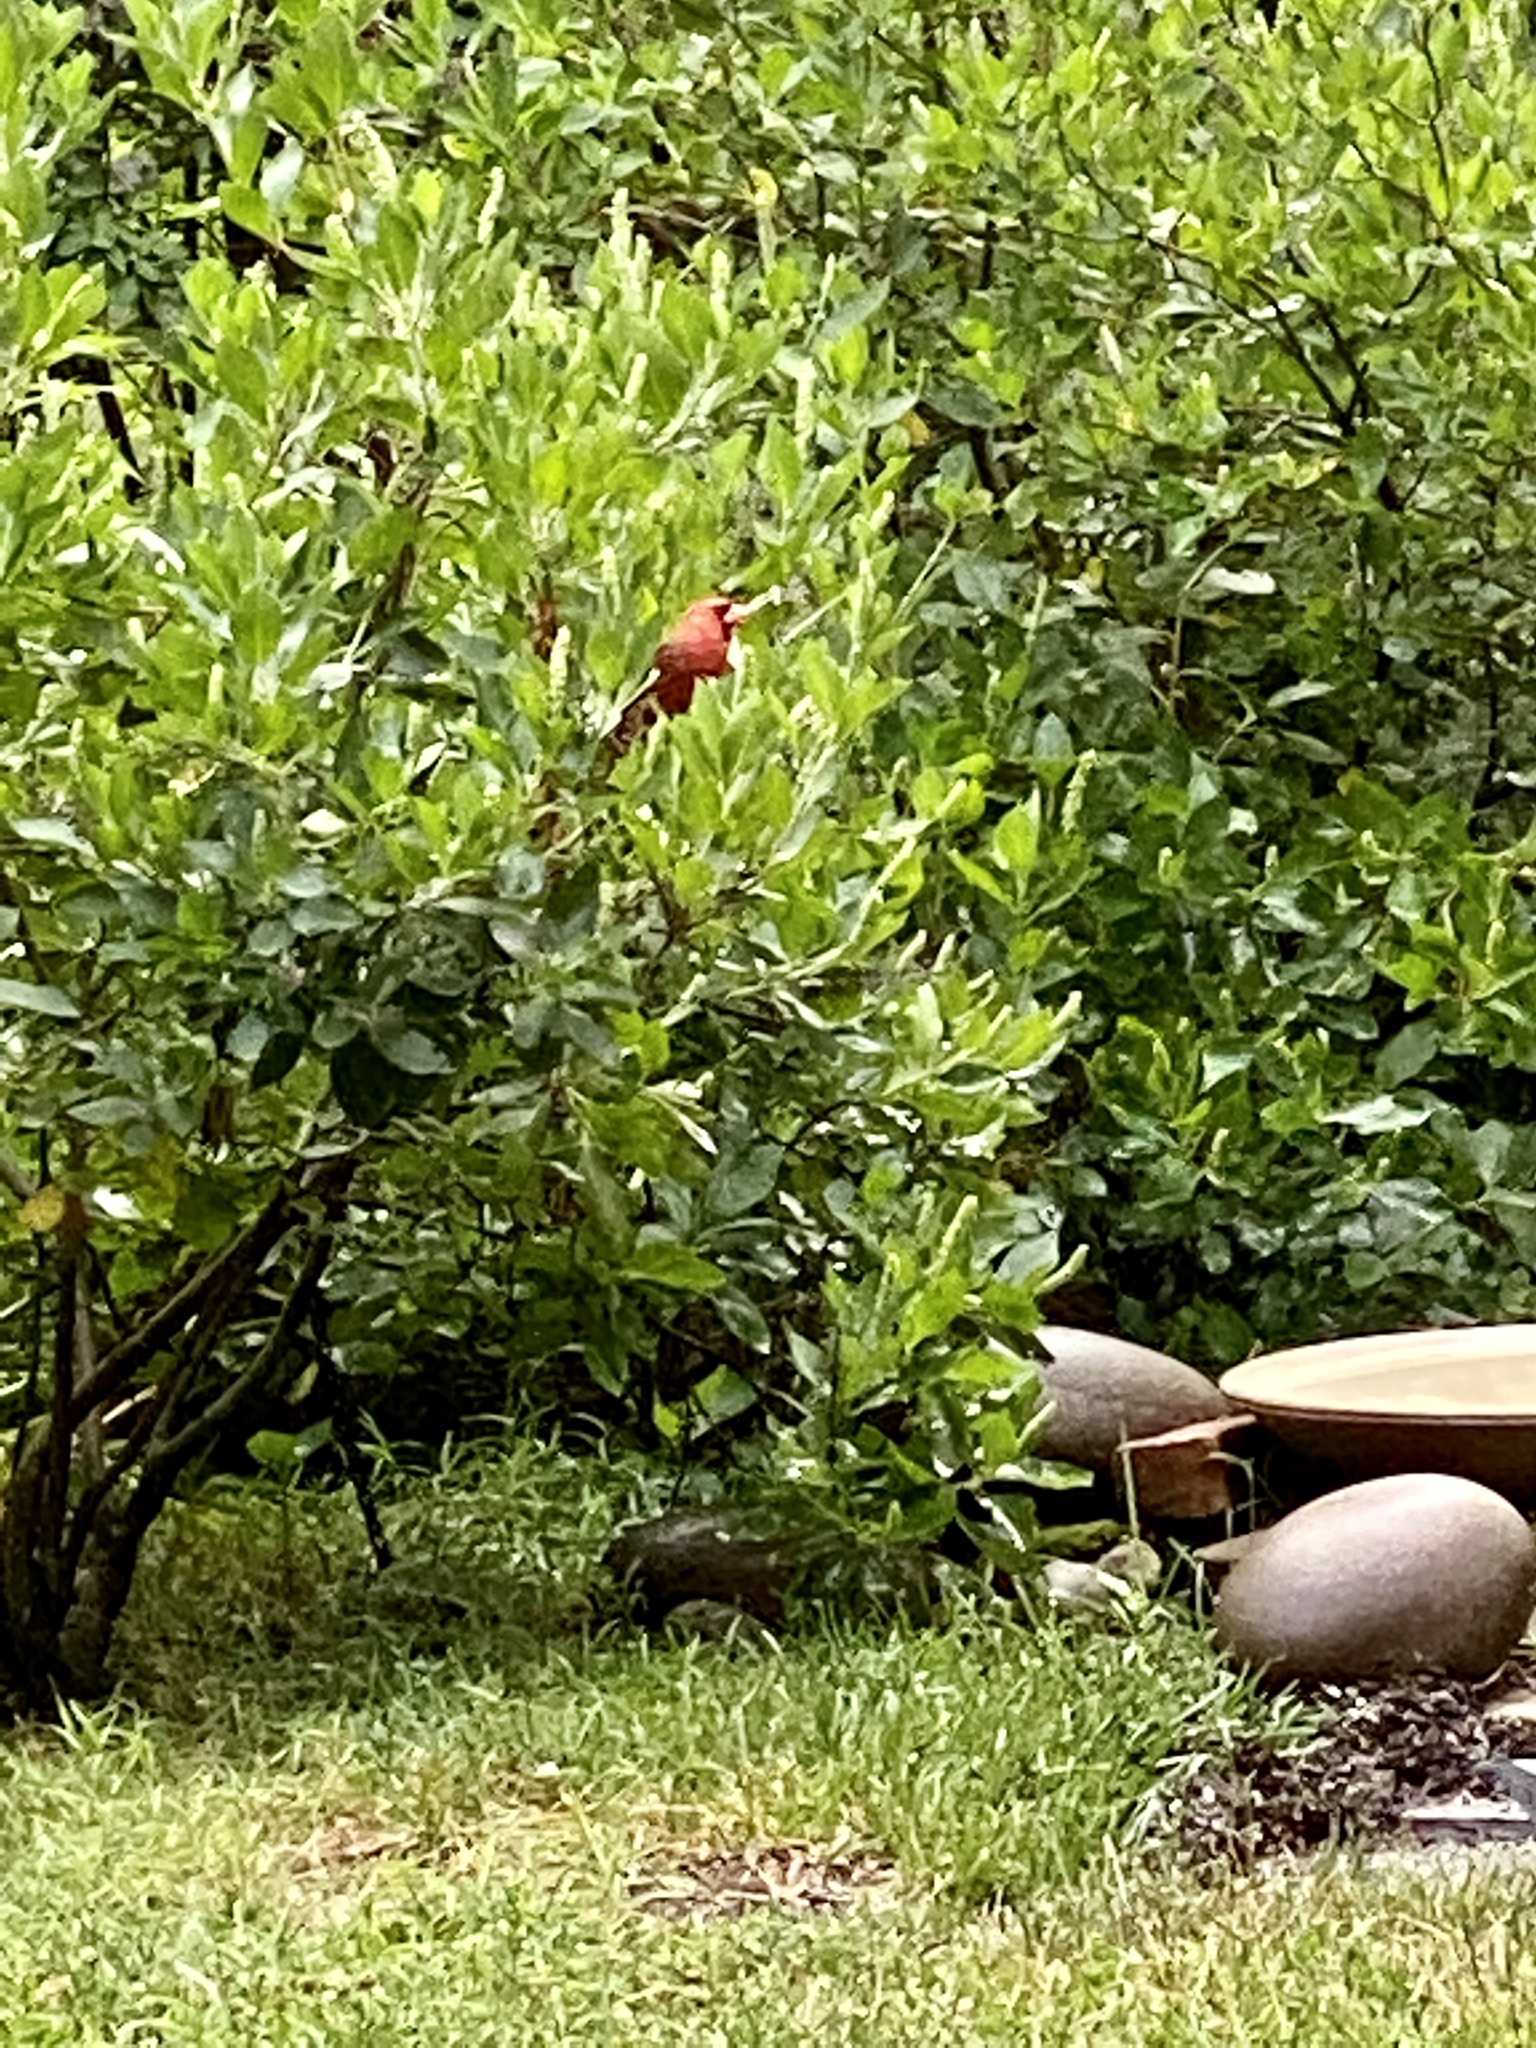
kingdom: Animalia
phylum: Chordata
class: Aves
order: Passeriformes
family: Cardinalidae
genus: Cardinalis
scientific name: Cardinalis cardinalis
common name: Northern cardinal
